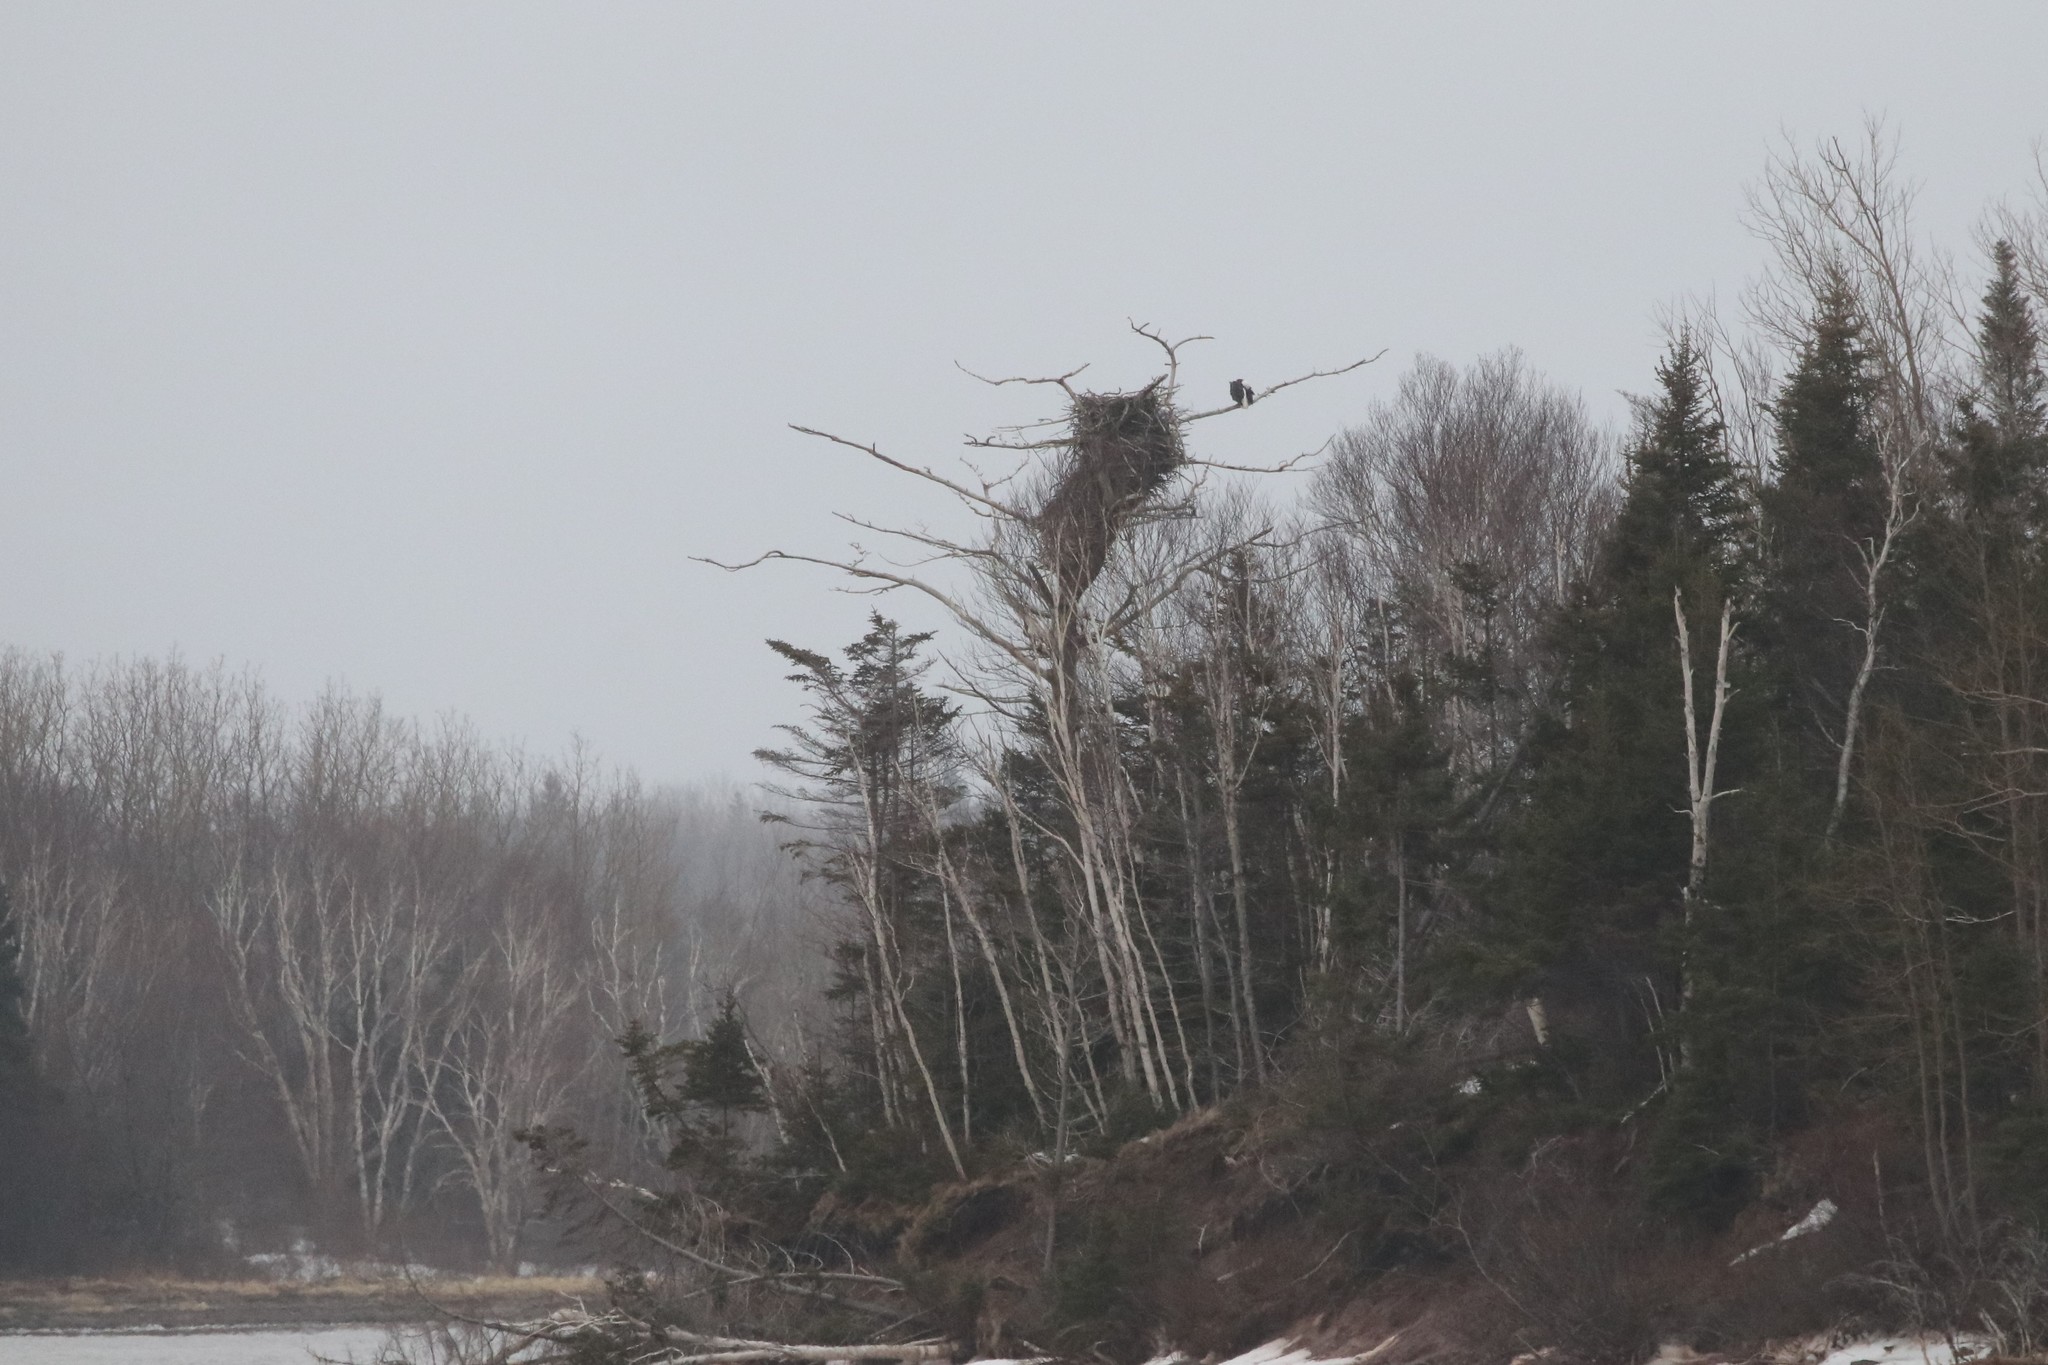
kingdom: Animalia
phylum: Chordata
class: Aves
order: Accipitriformes
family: Accipitridae
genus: Haliaeetus
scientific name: Haliaeetus leucocephalus
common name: Bald eagle
